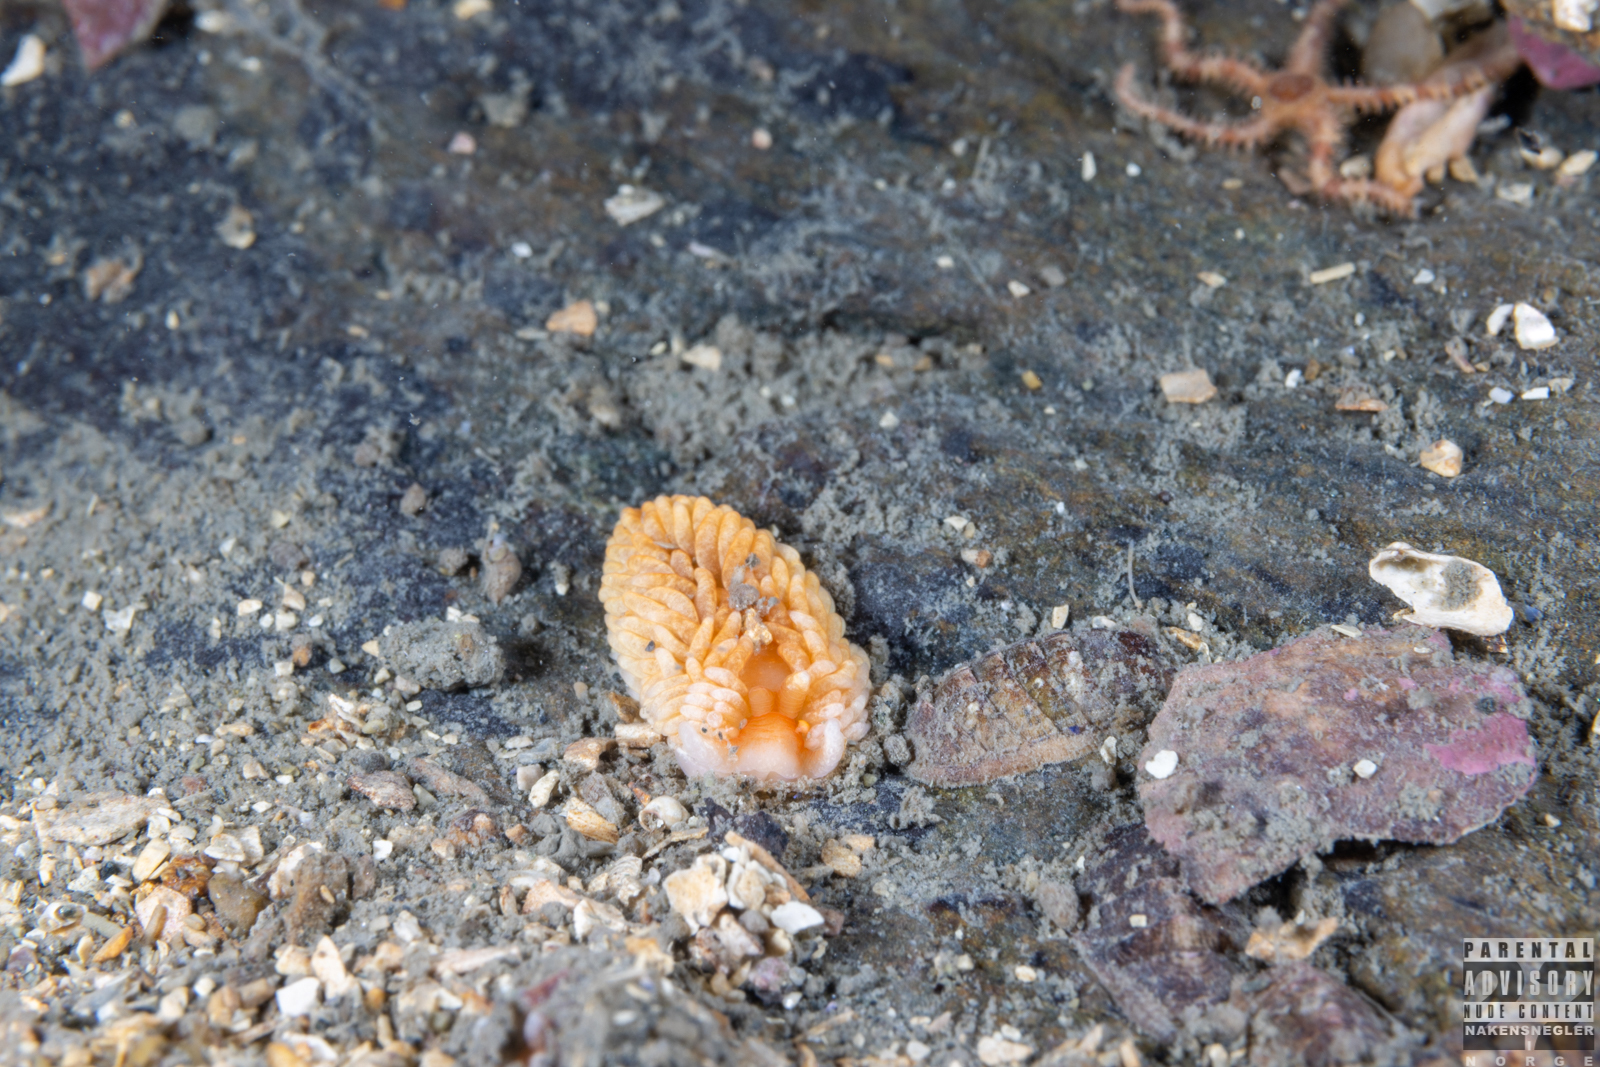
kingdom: Animalia
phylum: Mollusca
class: Gastropoda
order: Nudibranchia
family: Aeolidiidae
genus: Aeolidiella
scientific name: Aeolidiella glauca
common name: Orange-brown aeolid
